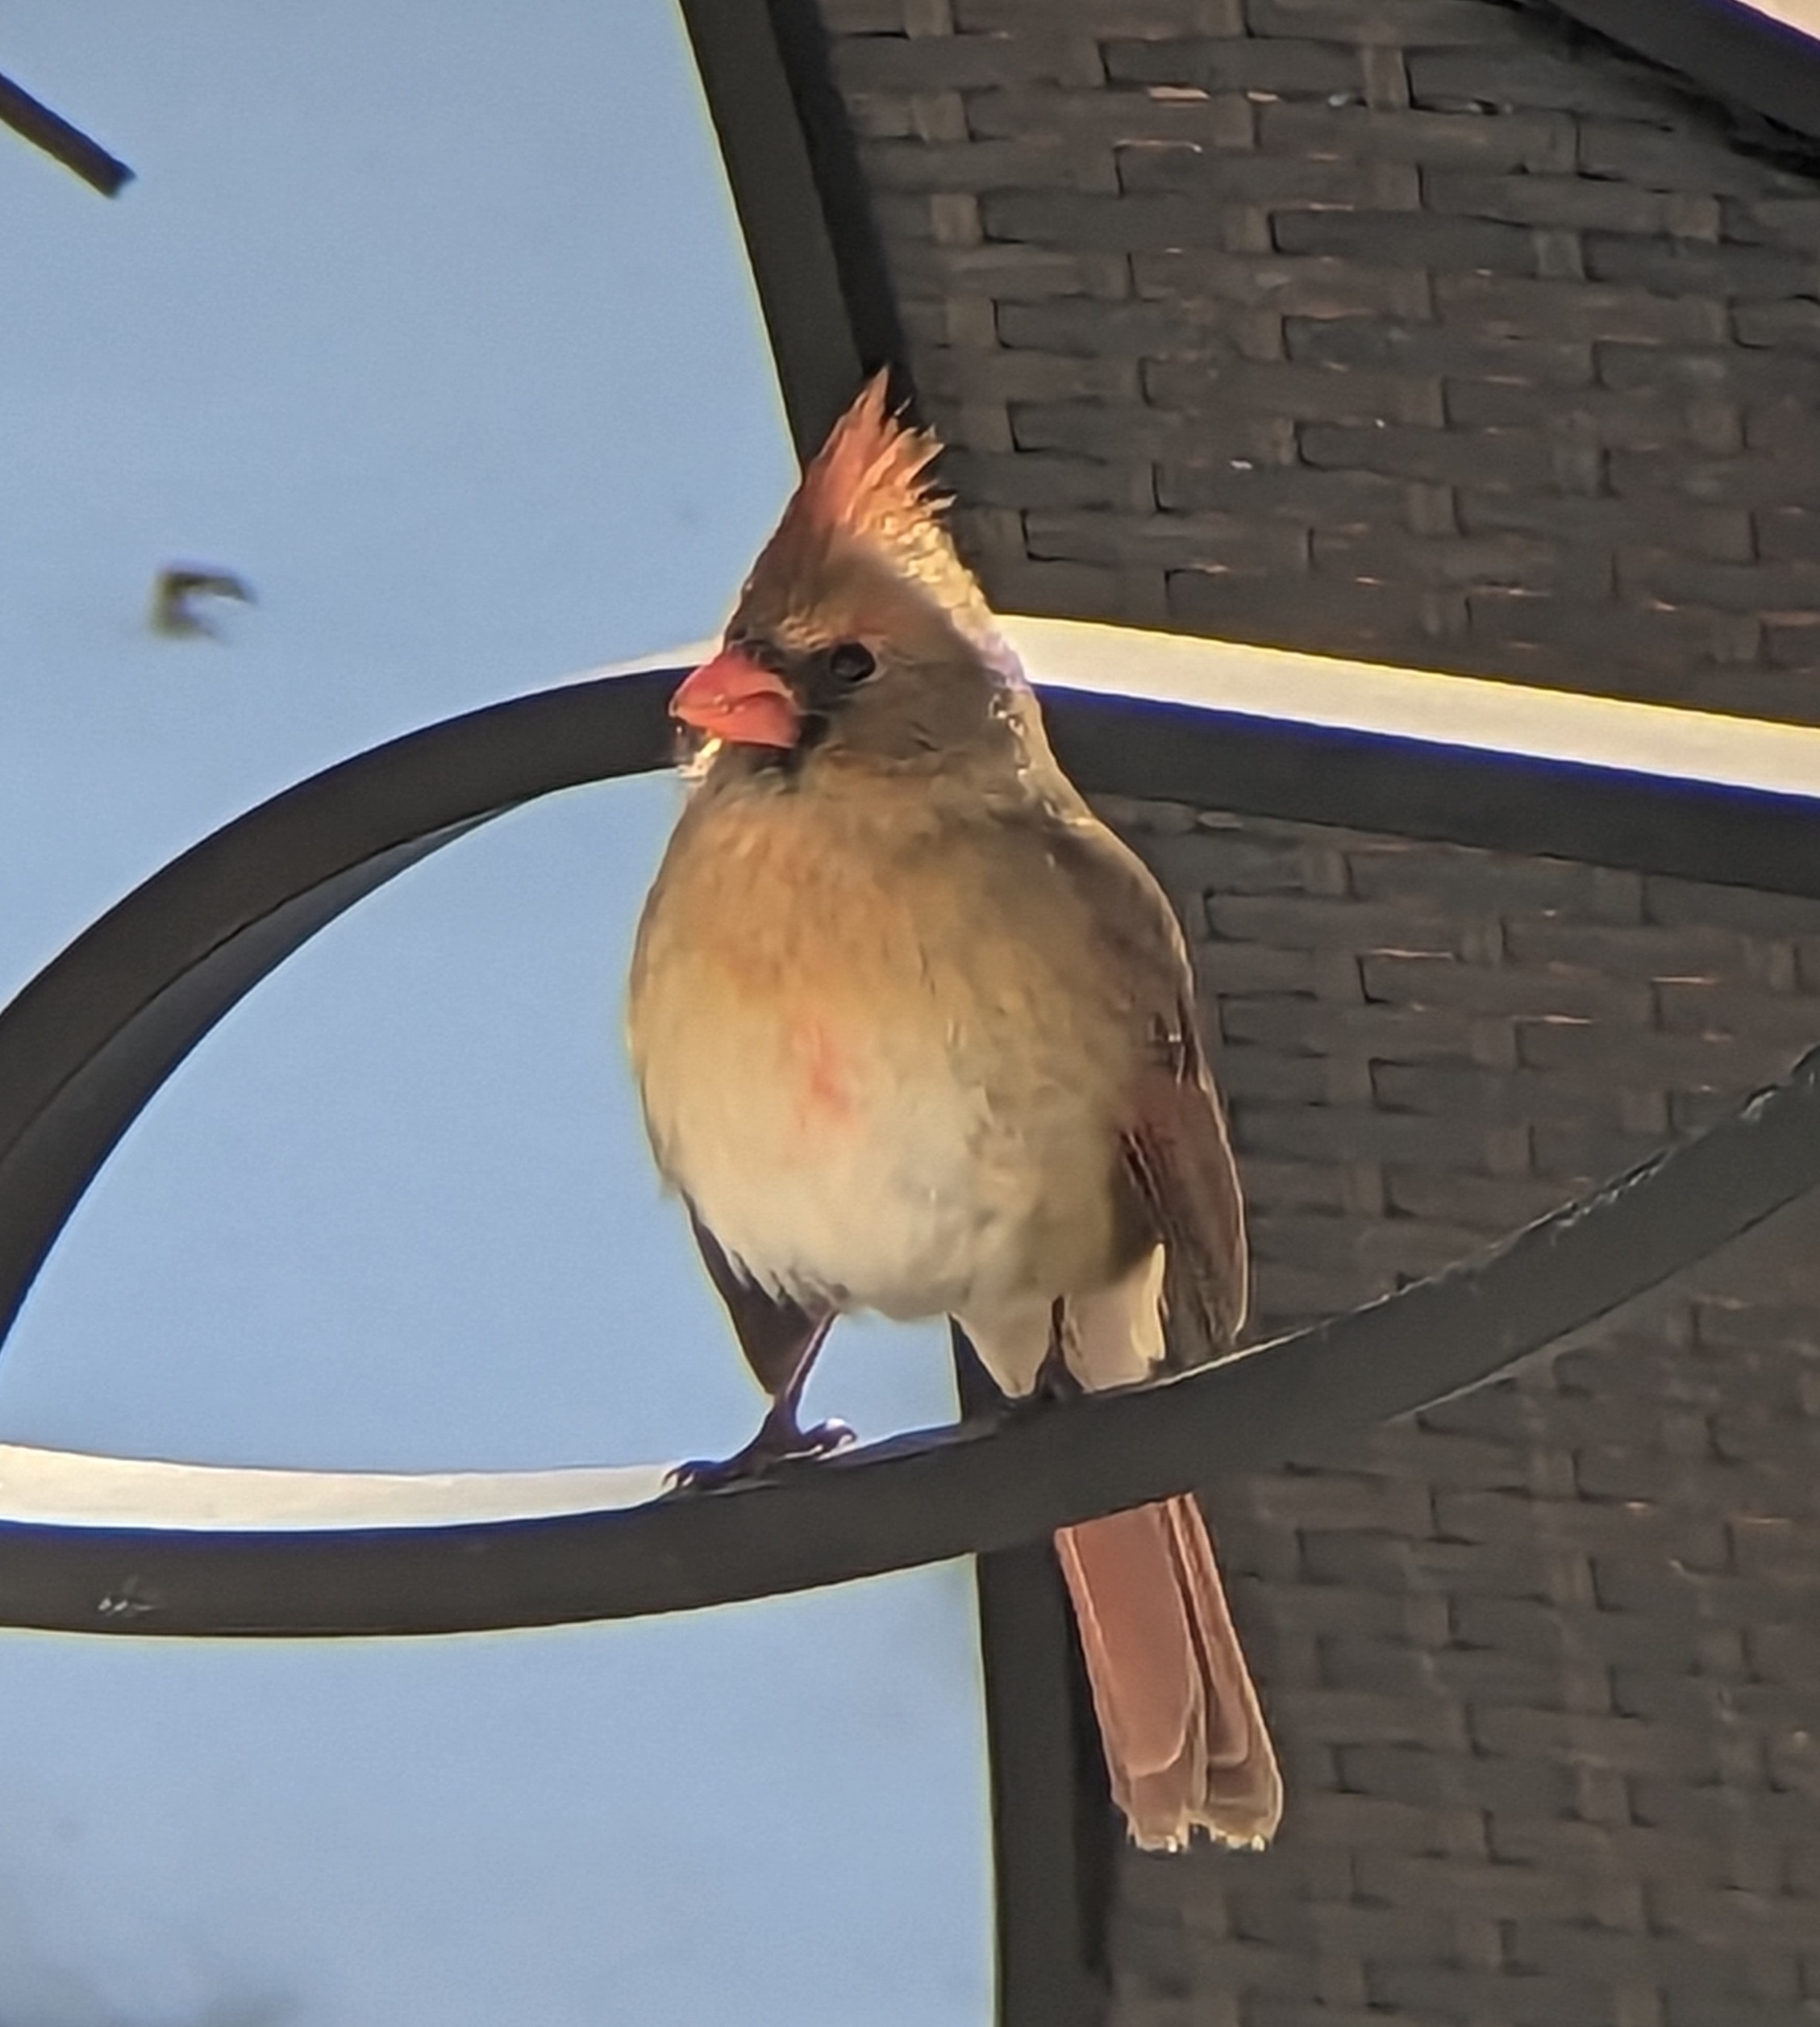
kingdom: Animalia
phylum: Chordata
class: Aves
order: Passeriformes
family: Cardinalidae
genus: Cardinalis
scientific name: Cardinalis cardinalis
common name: Northern cardinal
